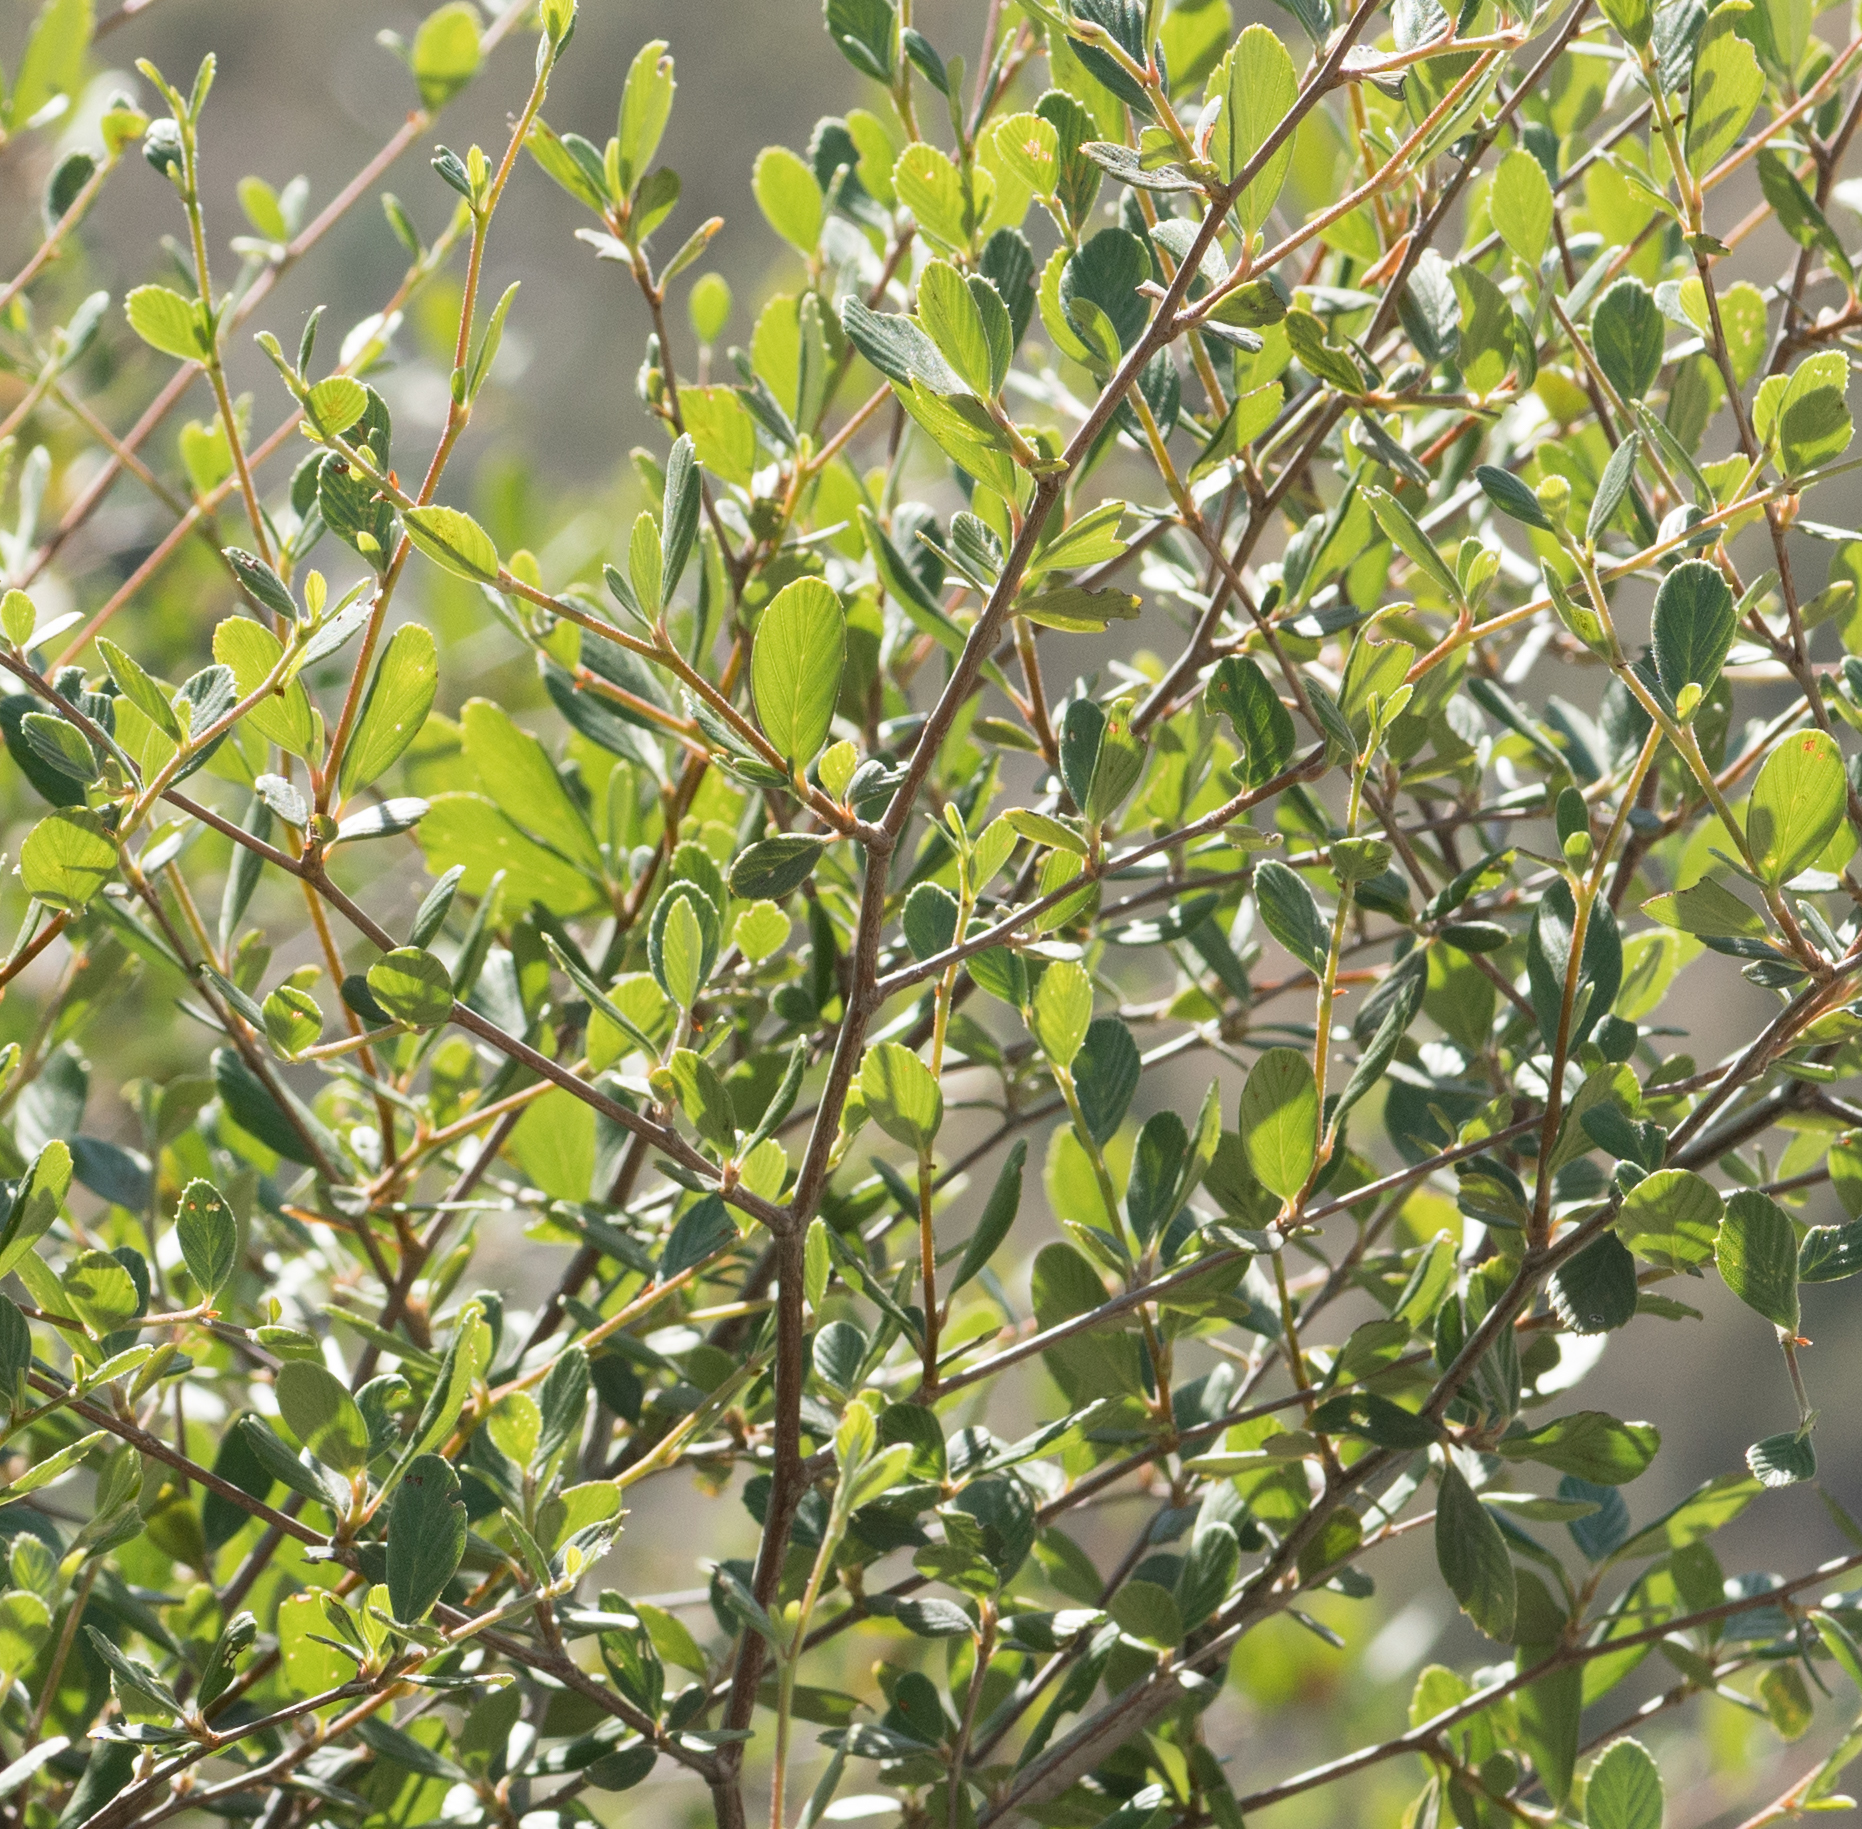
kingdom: Plantae
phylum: Tracheophyta
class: Magnoliopsida
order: Rosales
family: Rosaceae
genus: Cercocarpus
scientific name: Cercocarpus betuloides
